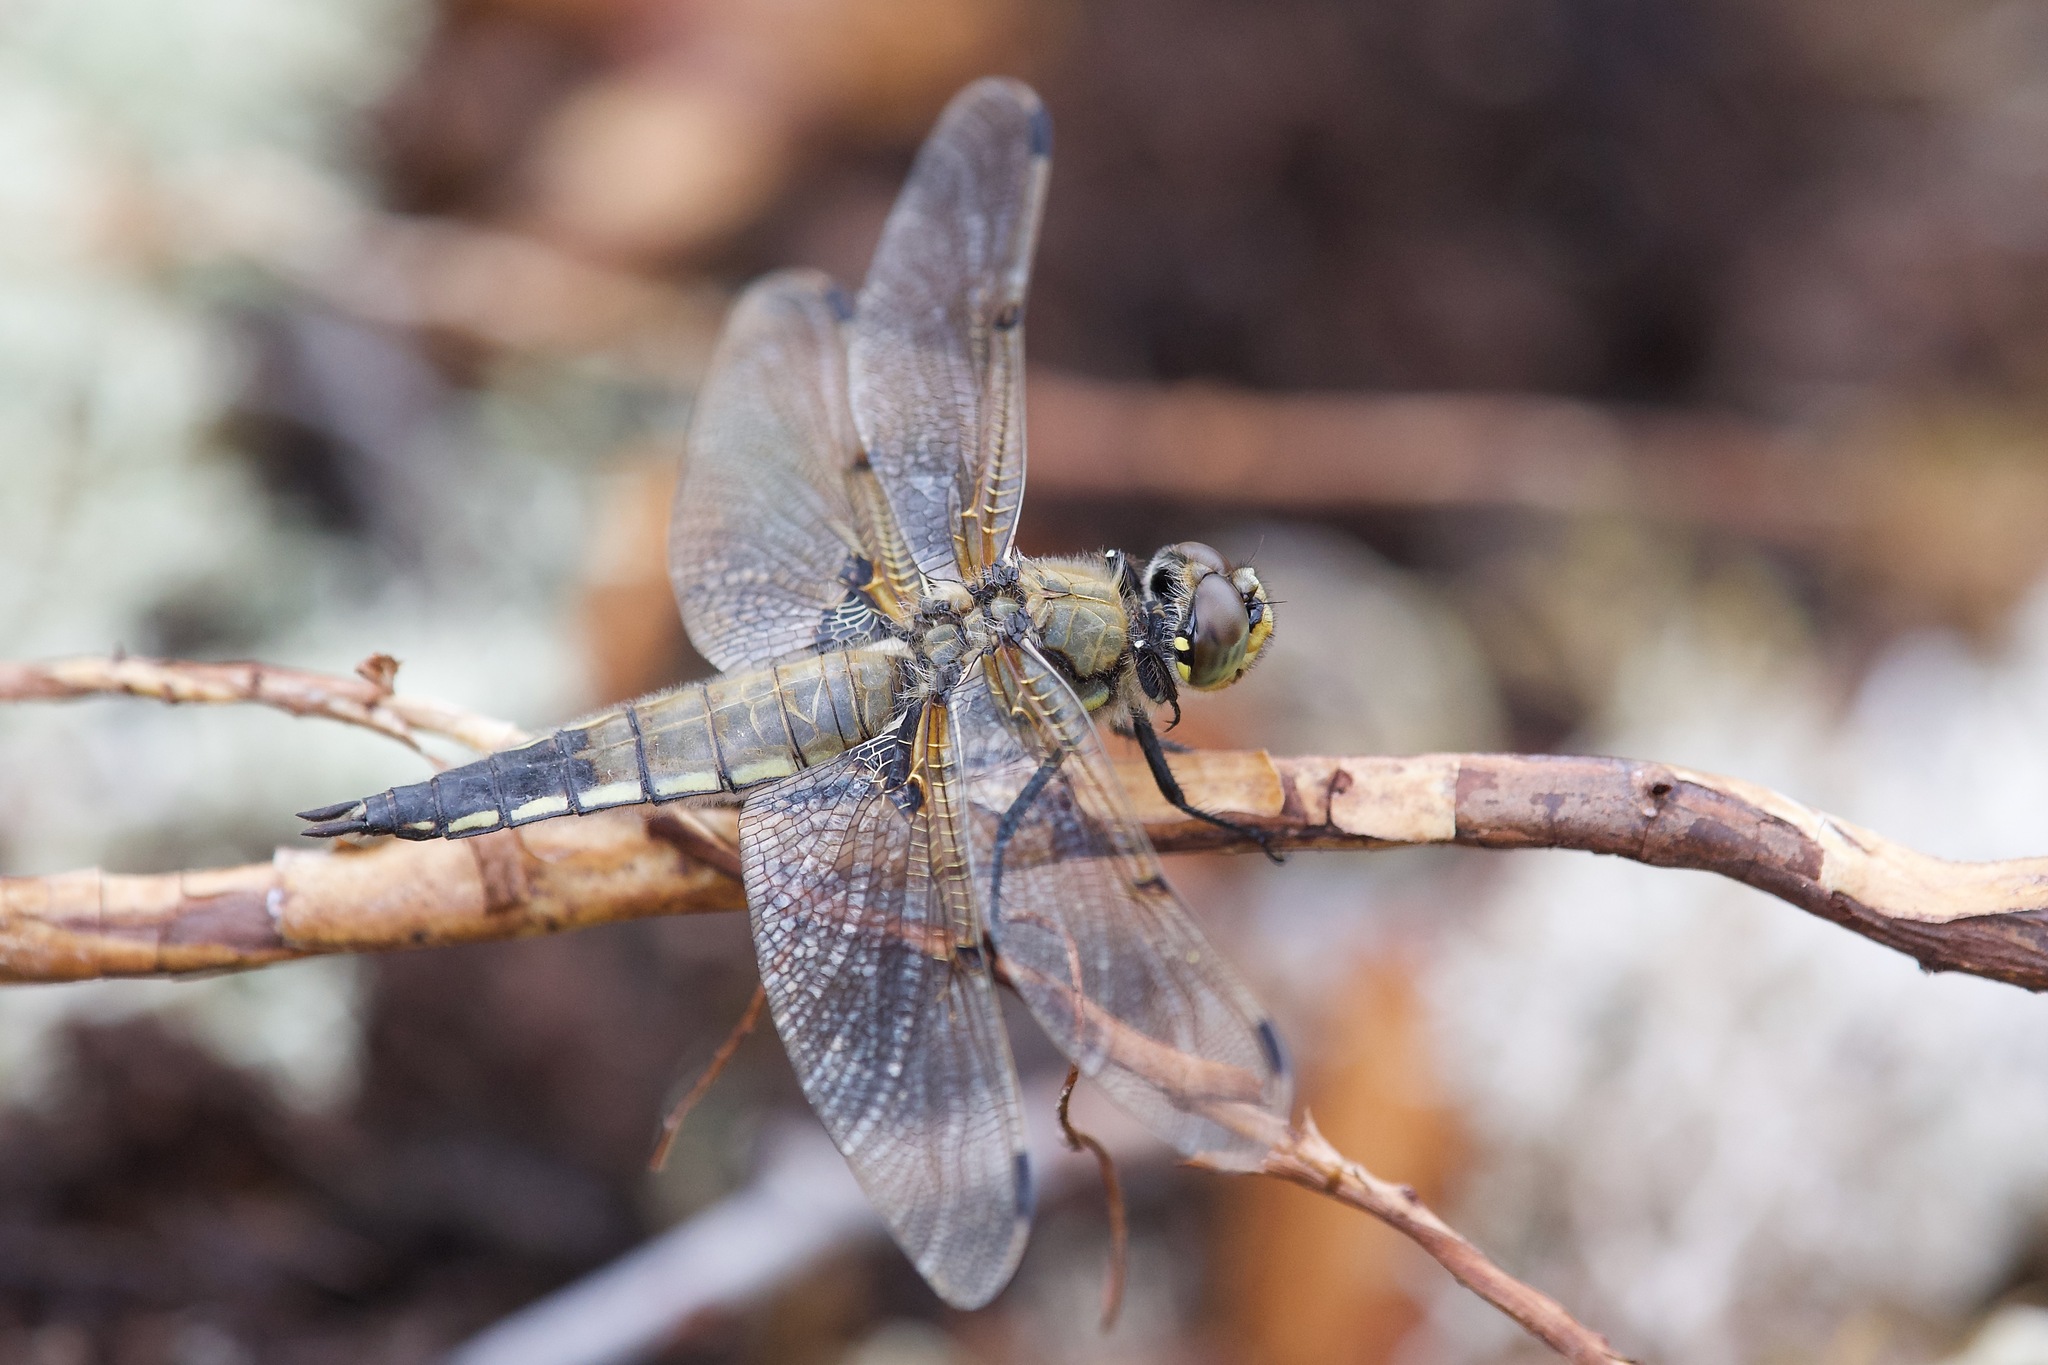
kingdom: Animalia
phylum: Arthropoda
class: Insecta
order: Odonata
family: Libellulidae
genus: Libellula
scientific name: Libellula quadrimaculata
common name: Four-spotted chaser
